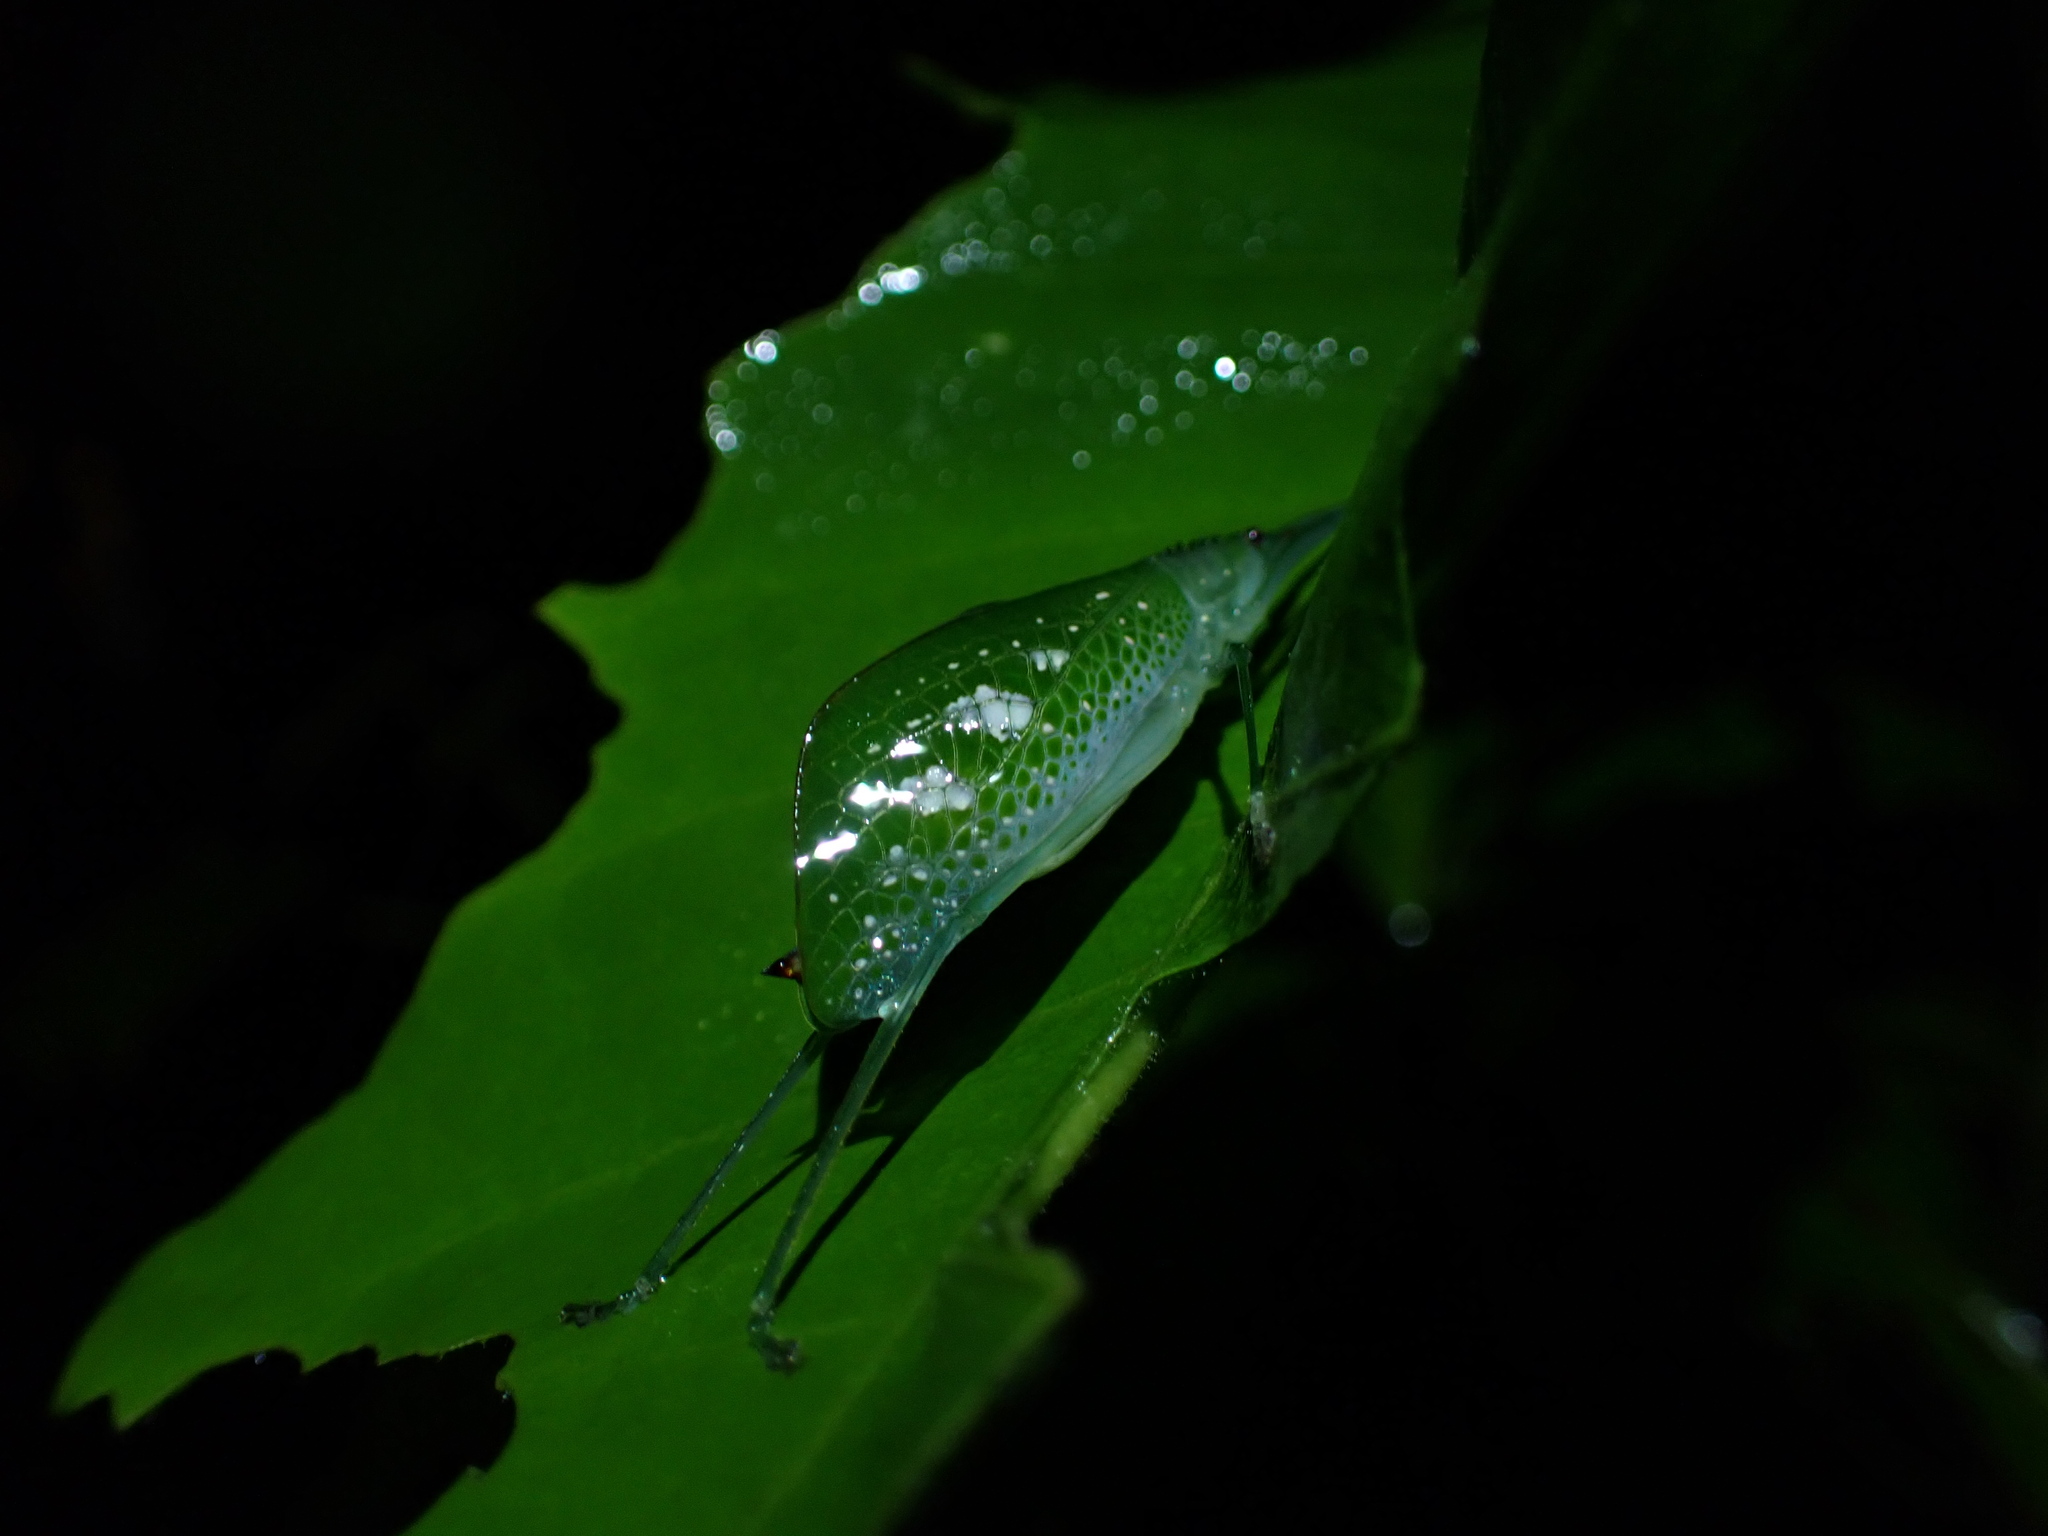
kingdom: Animalia
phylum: Arthropoda
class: Insecta
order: Orthoptera
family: Tettigoniidae
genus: Chloracantha
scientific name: Chloracantha angularis
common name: Angular-winged snub-nosed katydid
